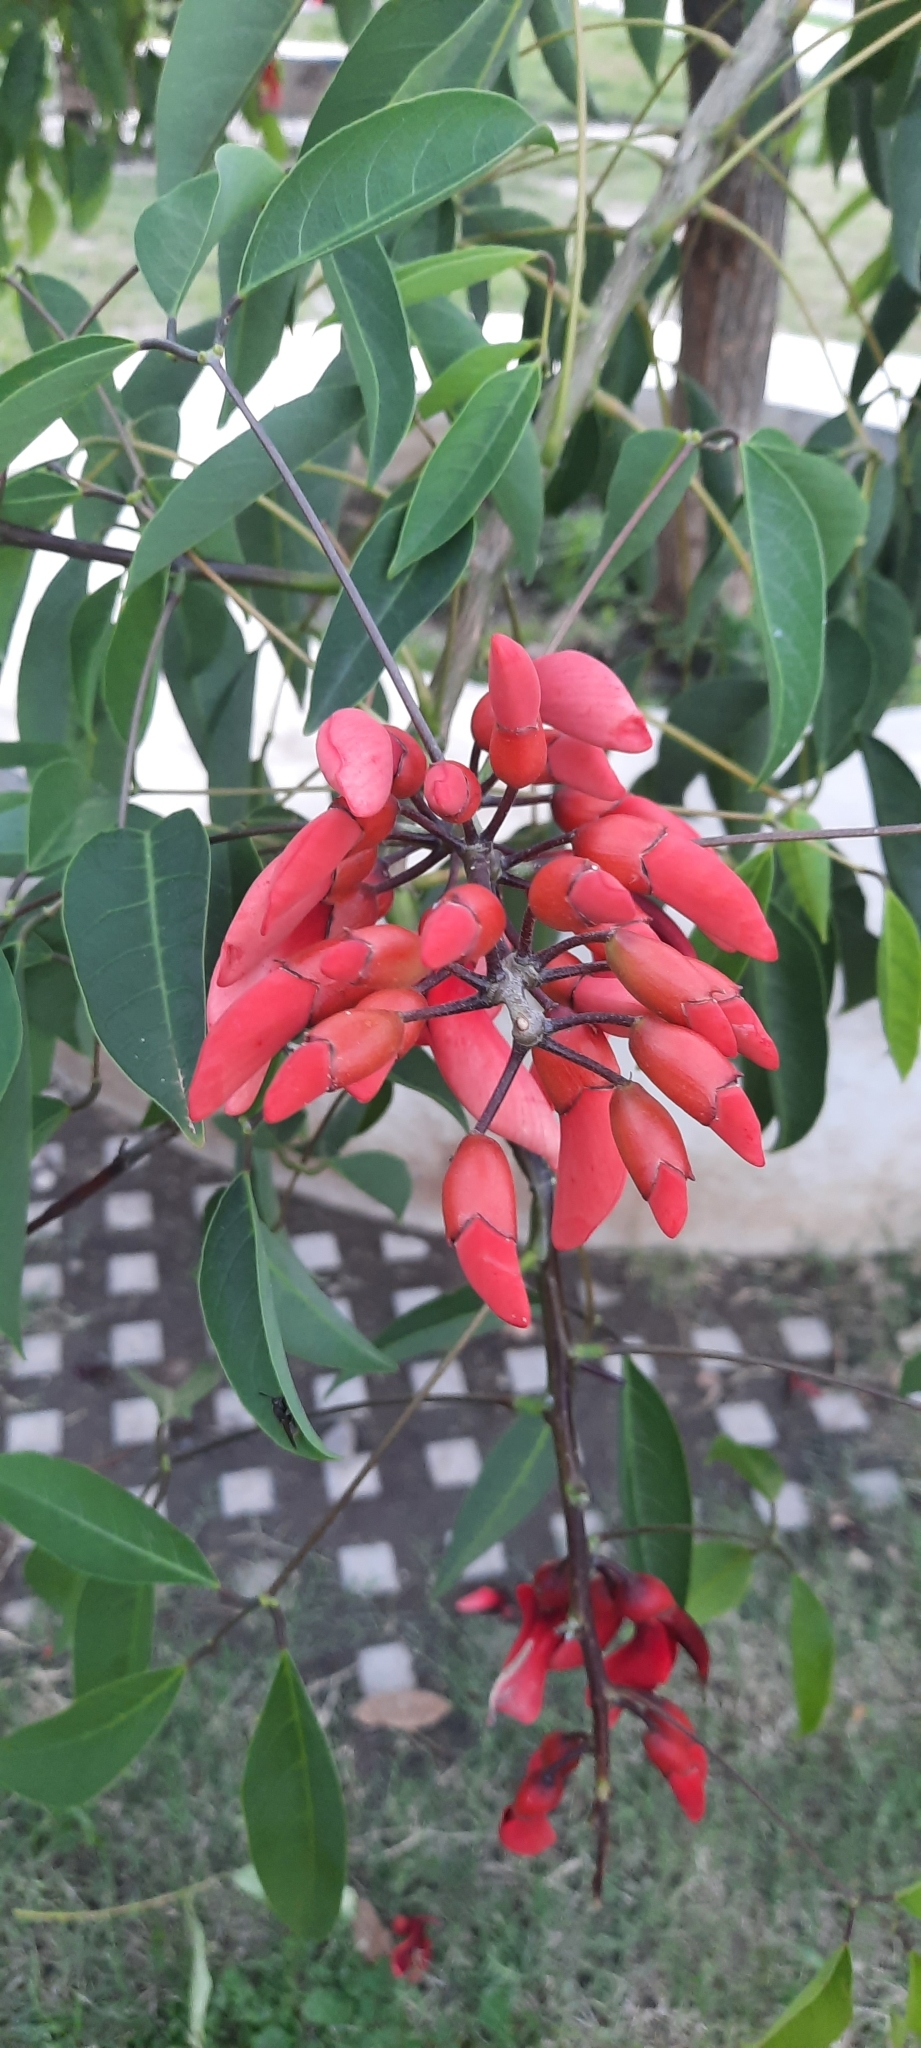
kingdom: Plantae
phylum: Tracheophyta
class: Magnoliopsida
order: Fabales
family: Fabaceae
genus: Erythrina
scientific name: Erythrina crista-galli
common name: Cockspur coral tree
